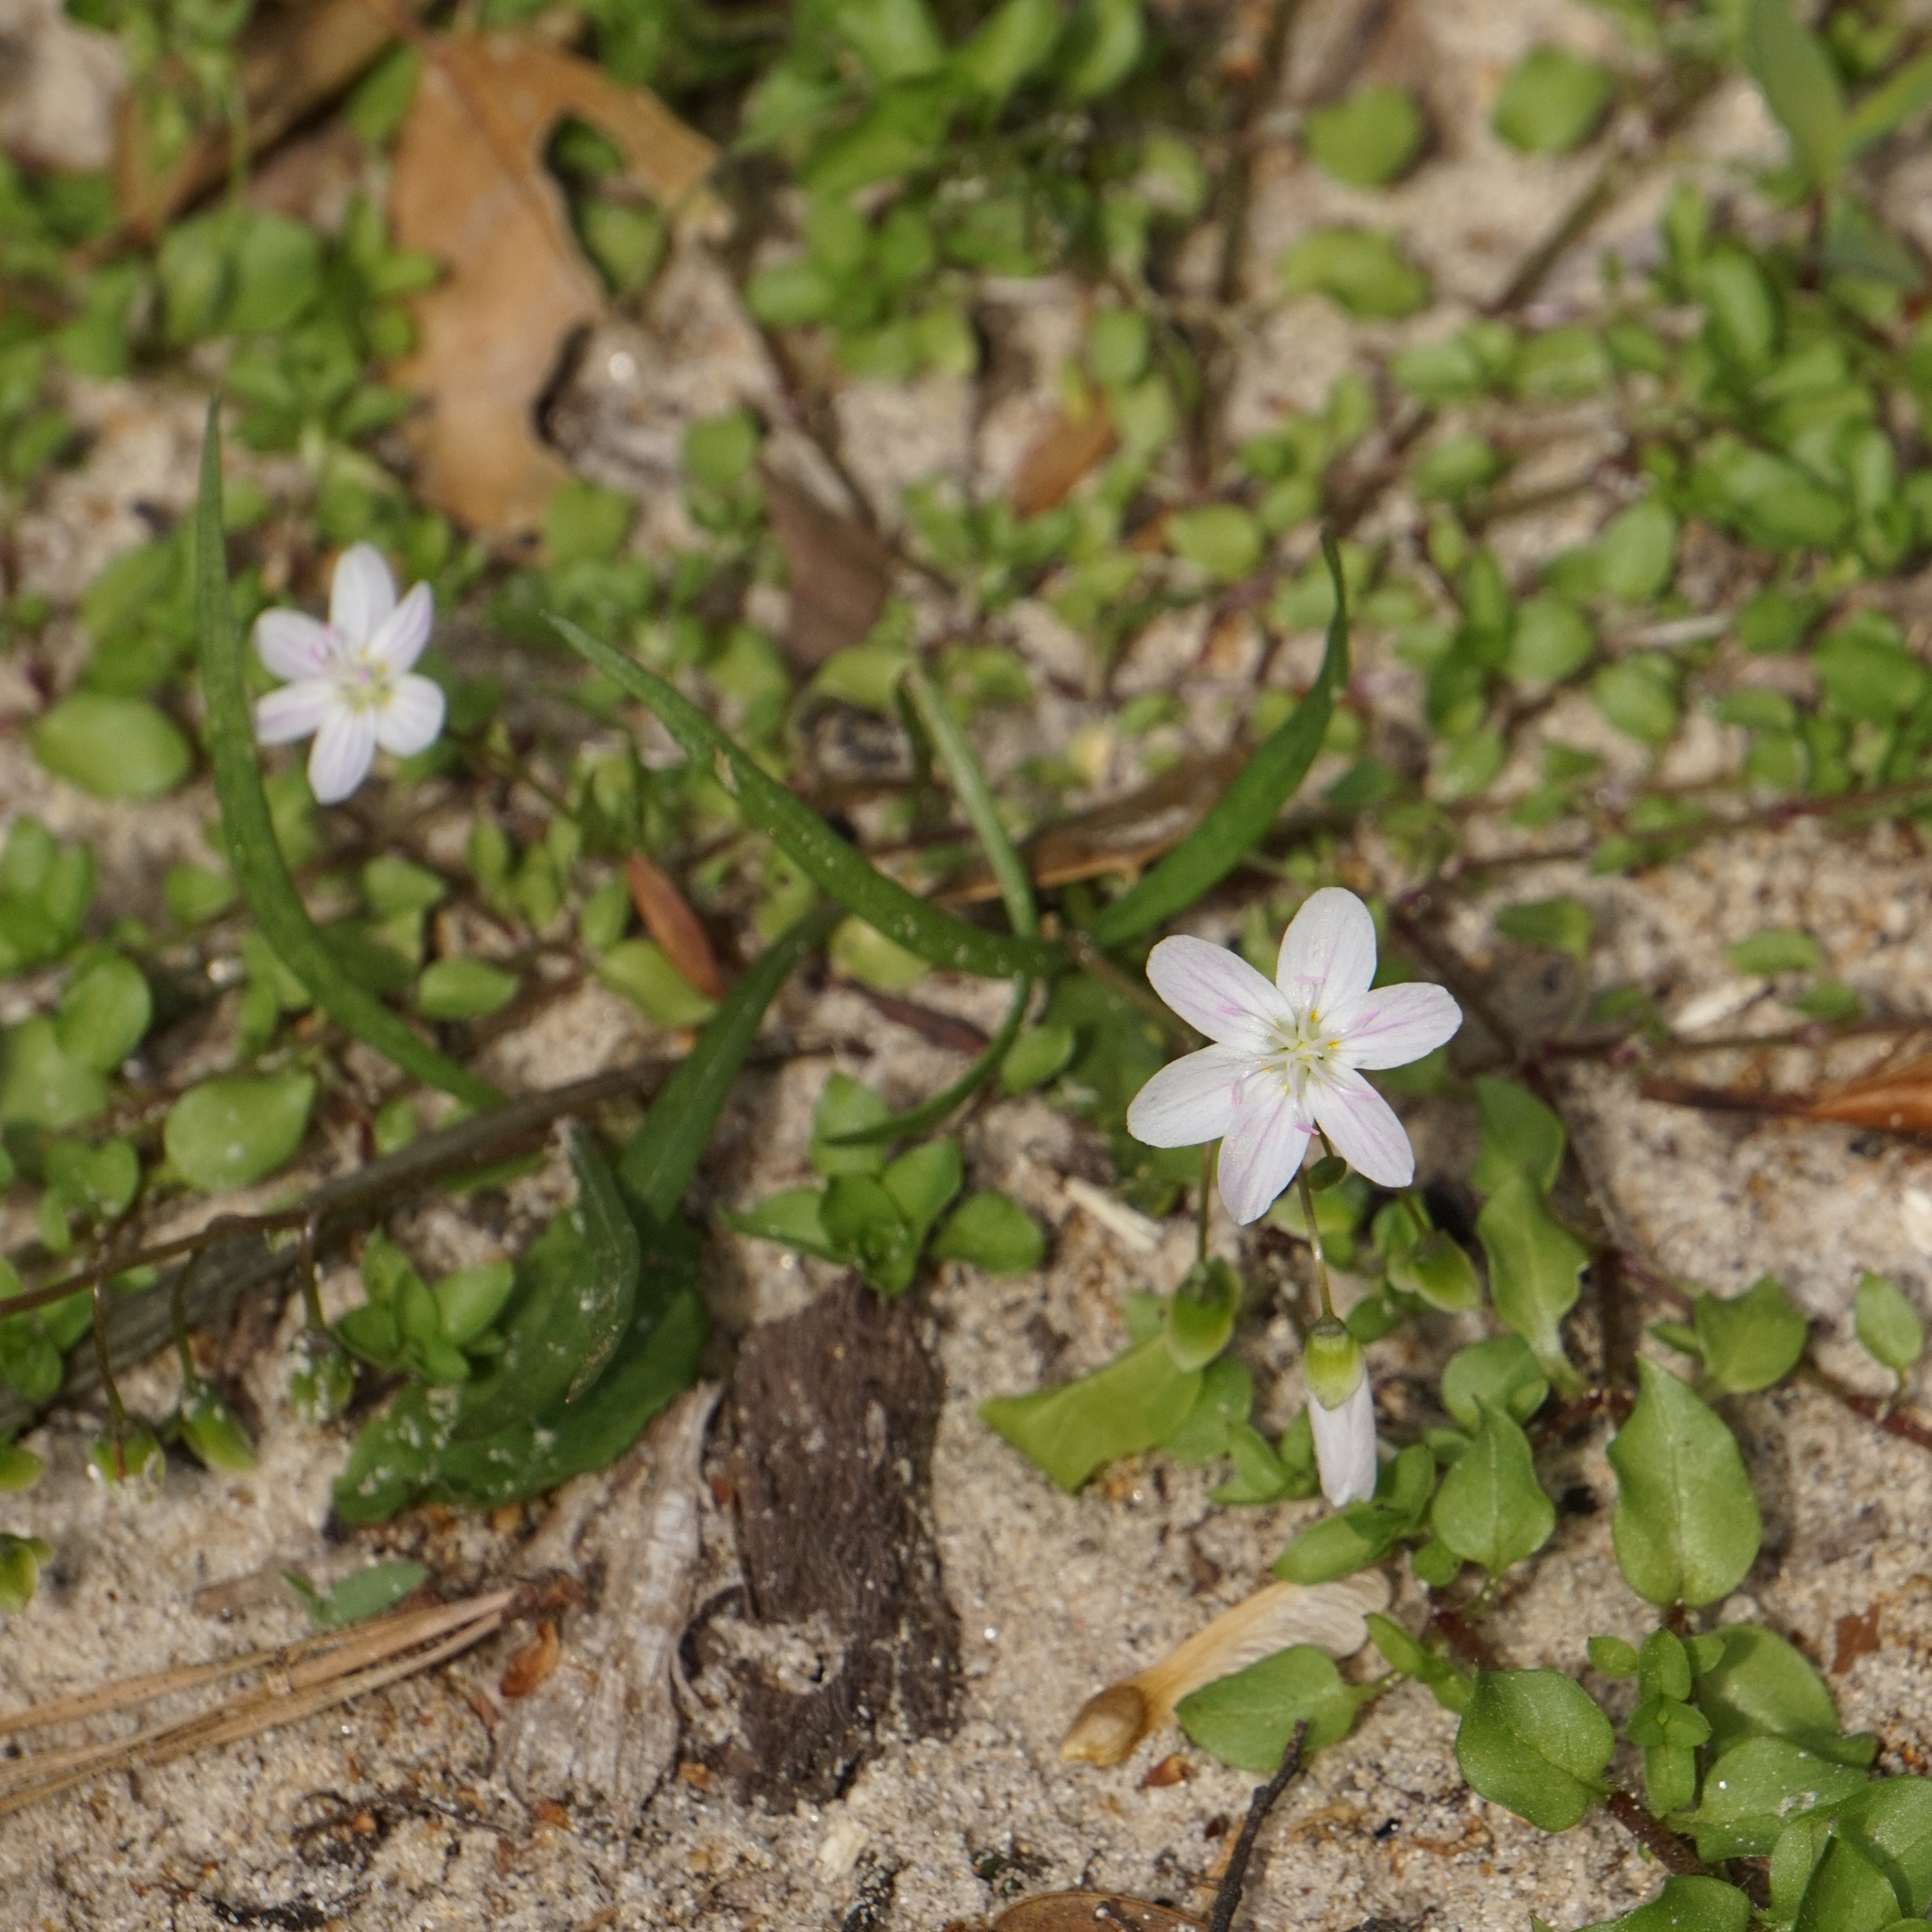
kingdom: Plantae
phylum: Tracheophyta
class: Magnoliopsida
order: Caryophyllales
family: Montiaceae
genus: Claytonia
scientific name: Claytonia virginica
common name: Virginia springbeauty
